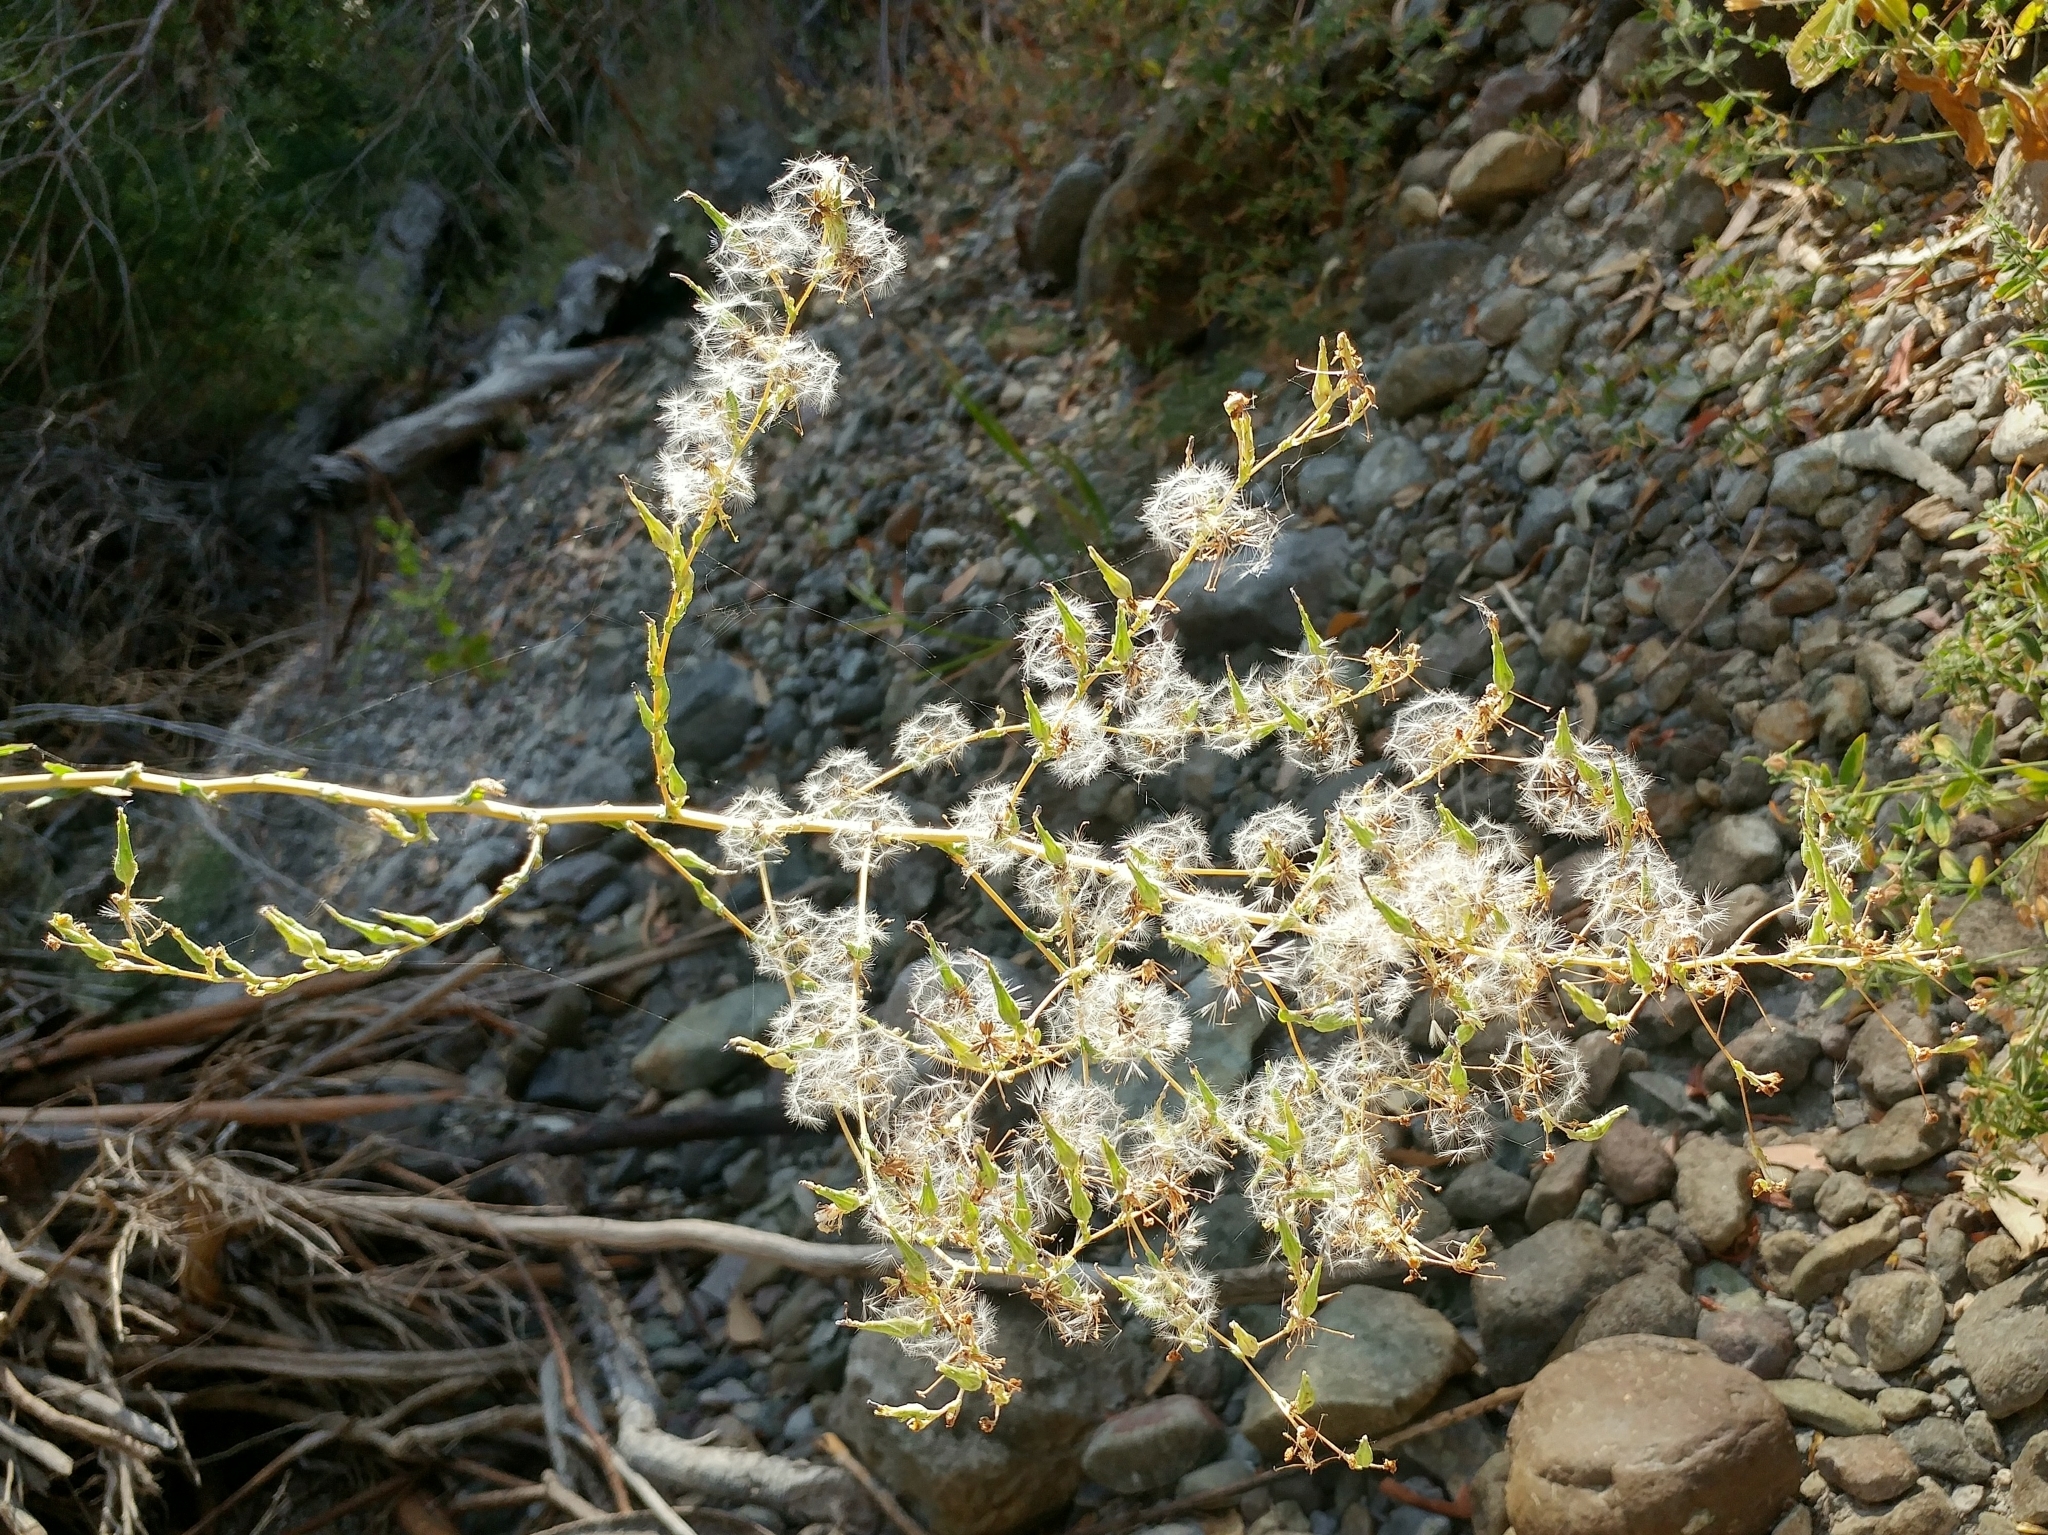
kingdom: Plantae
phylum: Tracheophyta
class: Magnoliopsida
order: Asterales
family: Asteraceae
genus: Lactuca
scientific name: Lactuca serriola
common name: Prickly lettuce
